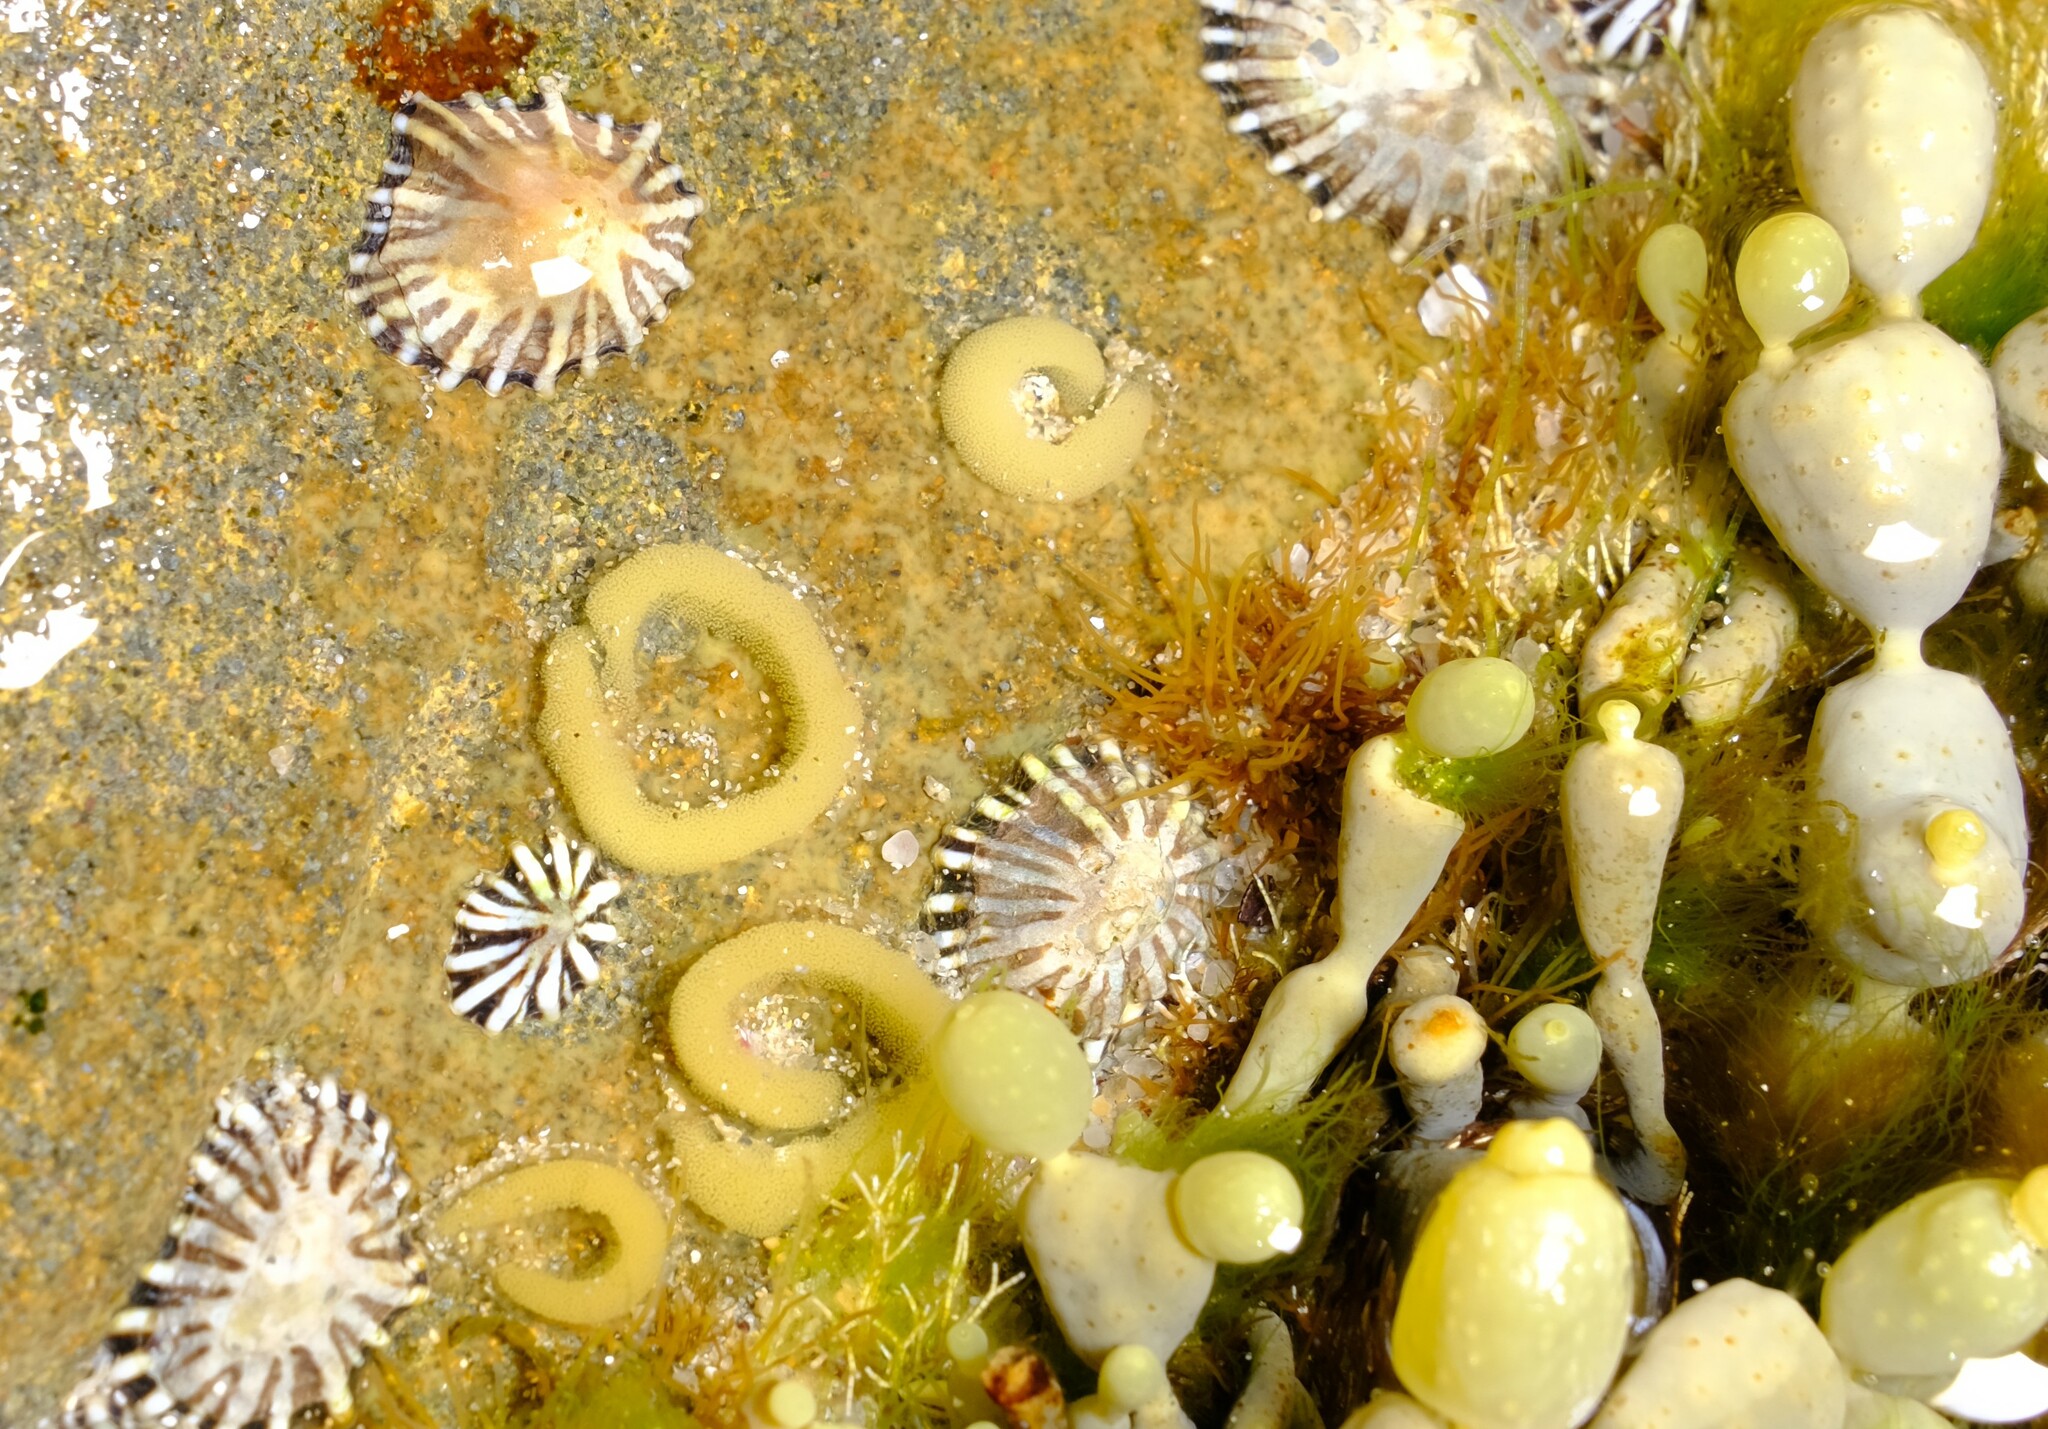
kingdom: Animalia
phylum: Mollusca
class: Gastropoda
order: Siphonariida
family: Siphonariidae
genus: Siphonaria
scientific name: Siphonaria diemenensis
